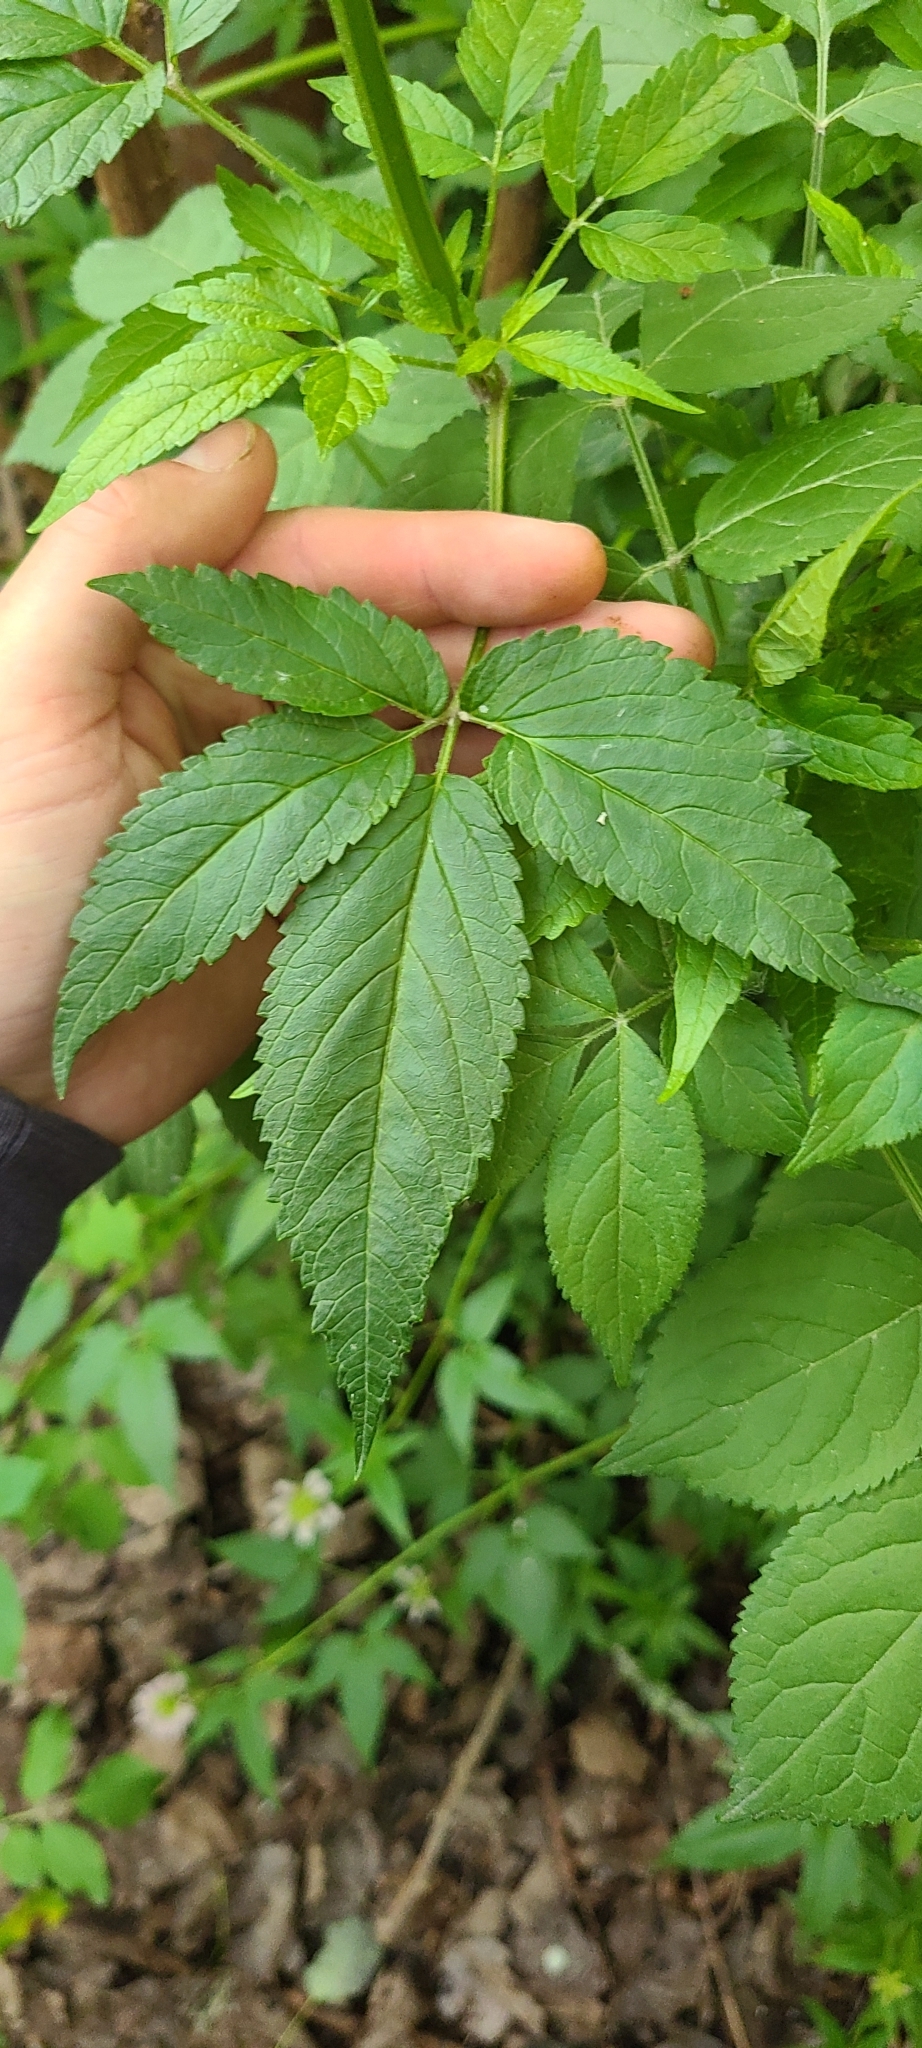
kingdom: Plantae
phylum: Tracheophyta
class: Magnoliopsida
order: Lamiales
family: Lamiaceae
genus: Cedronella
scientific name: Cedronella canariensis
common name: Canary islands balm
